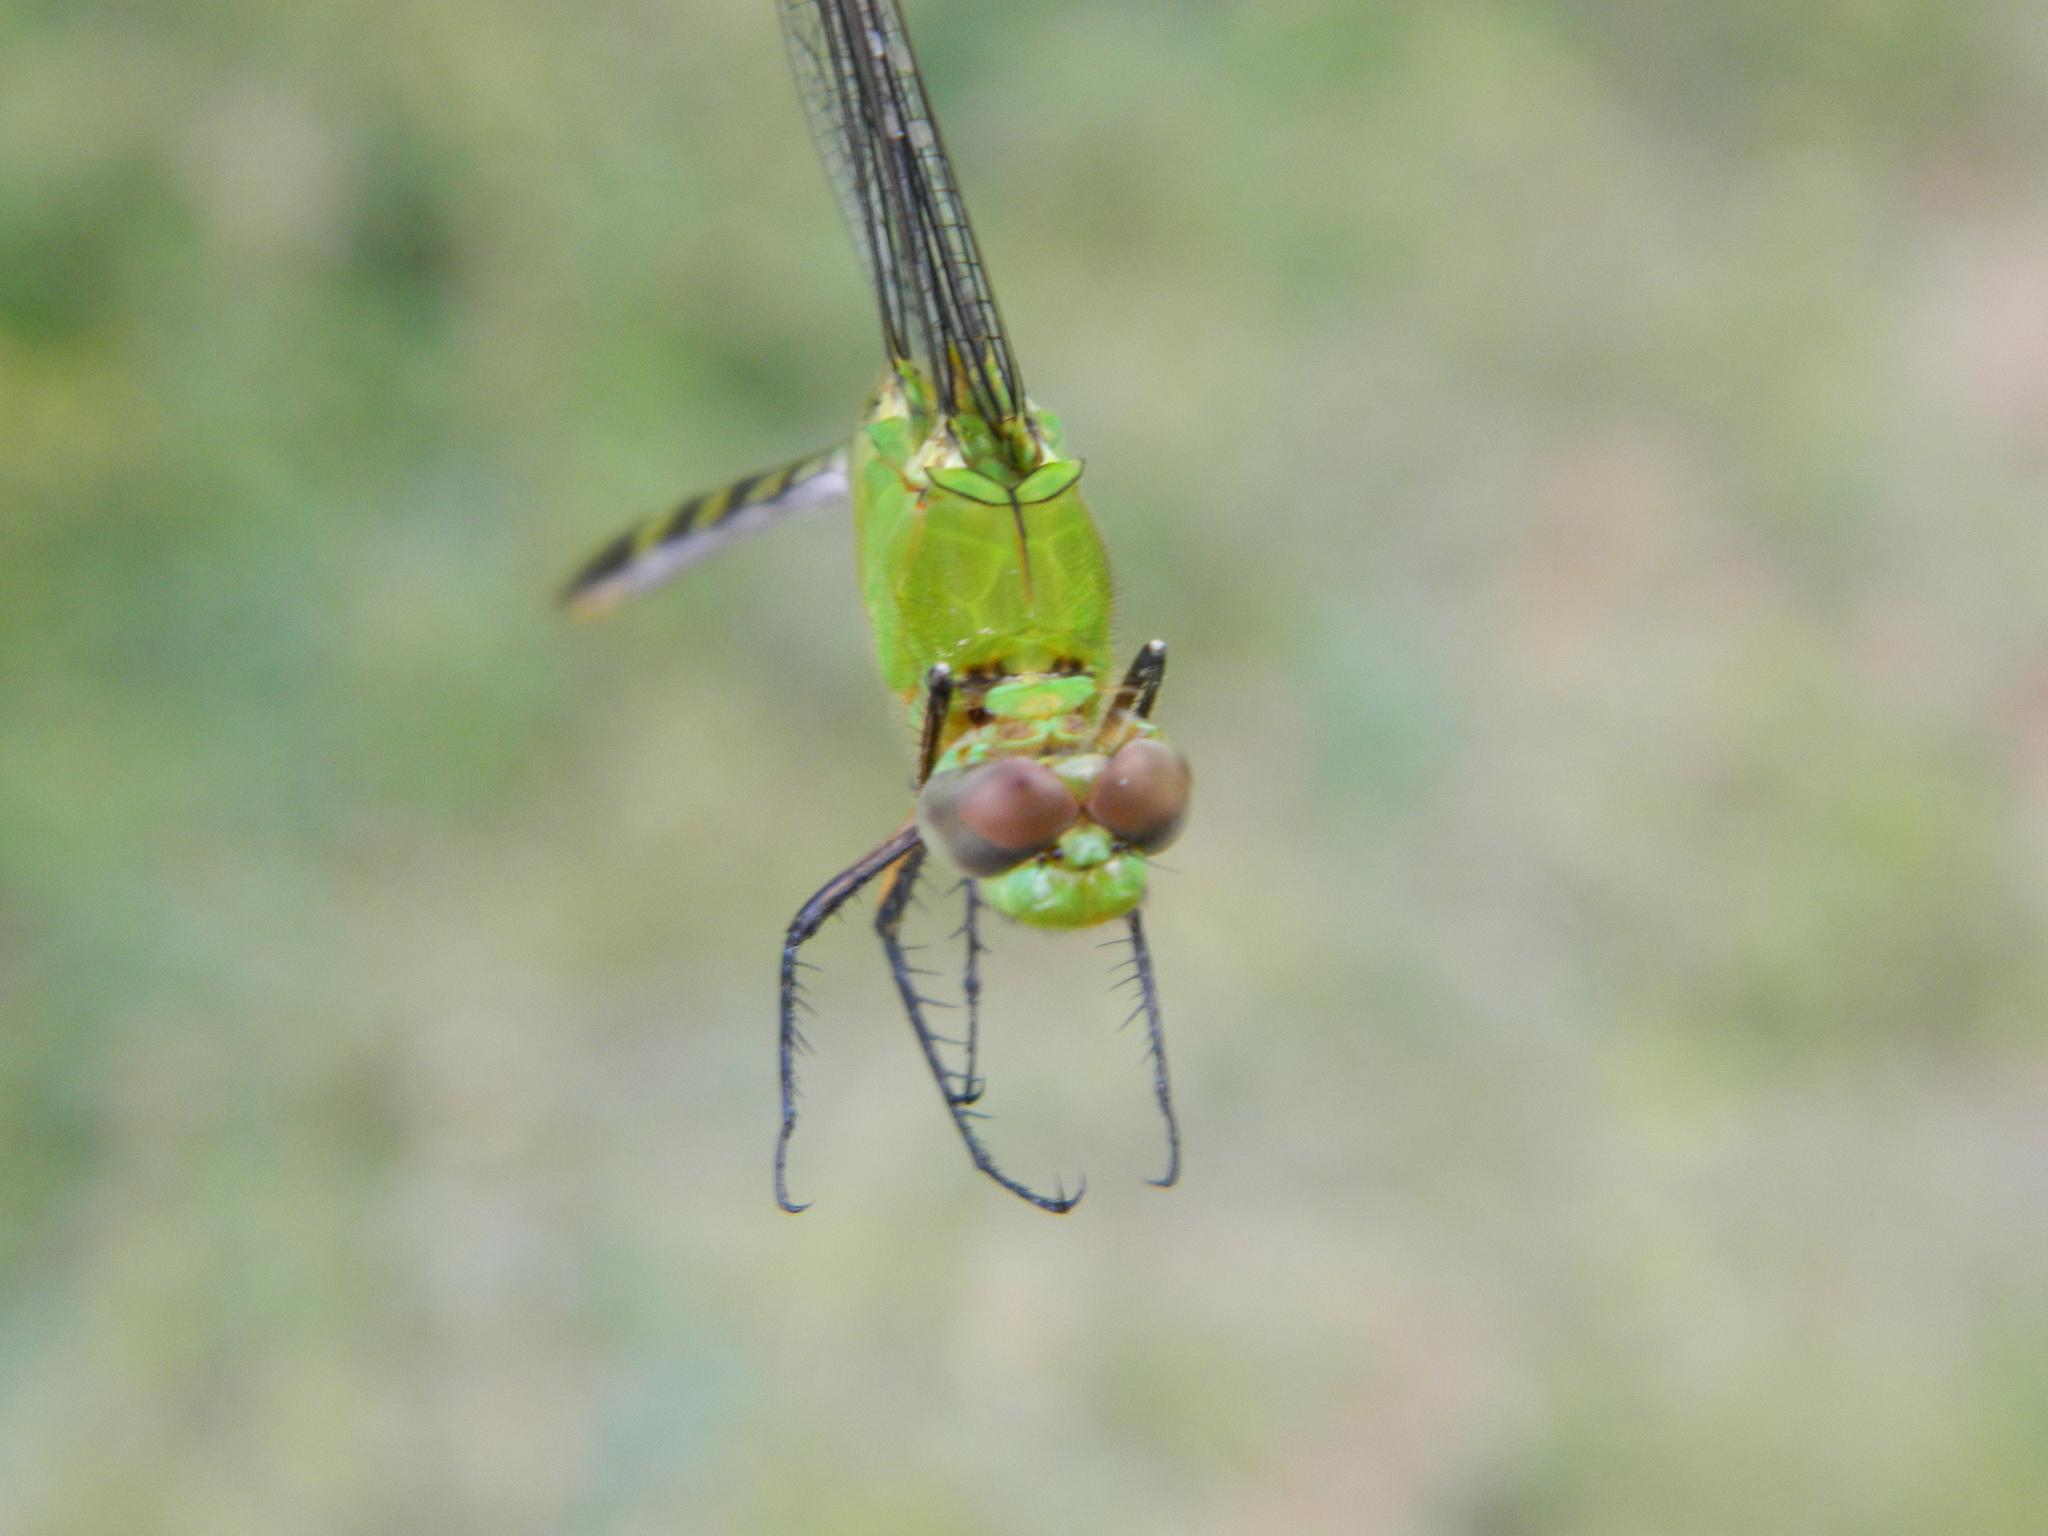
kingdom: Animalia
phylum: Arthropoda
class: Insecta
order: Odonata
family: Libellulidae
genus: Erythemis
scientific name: Erythemis vesiculosa
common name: Great pondhawk
